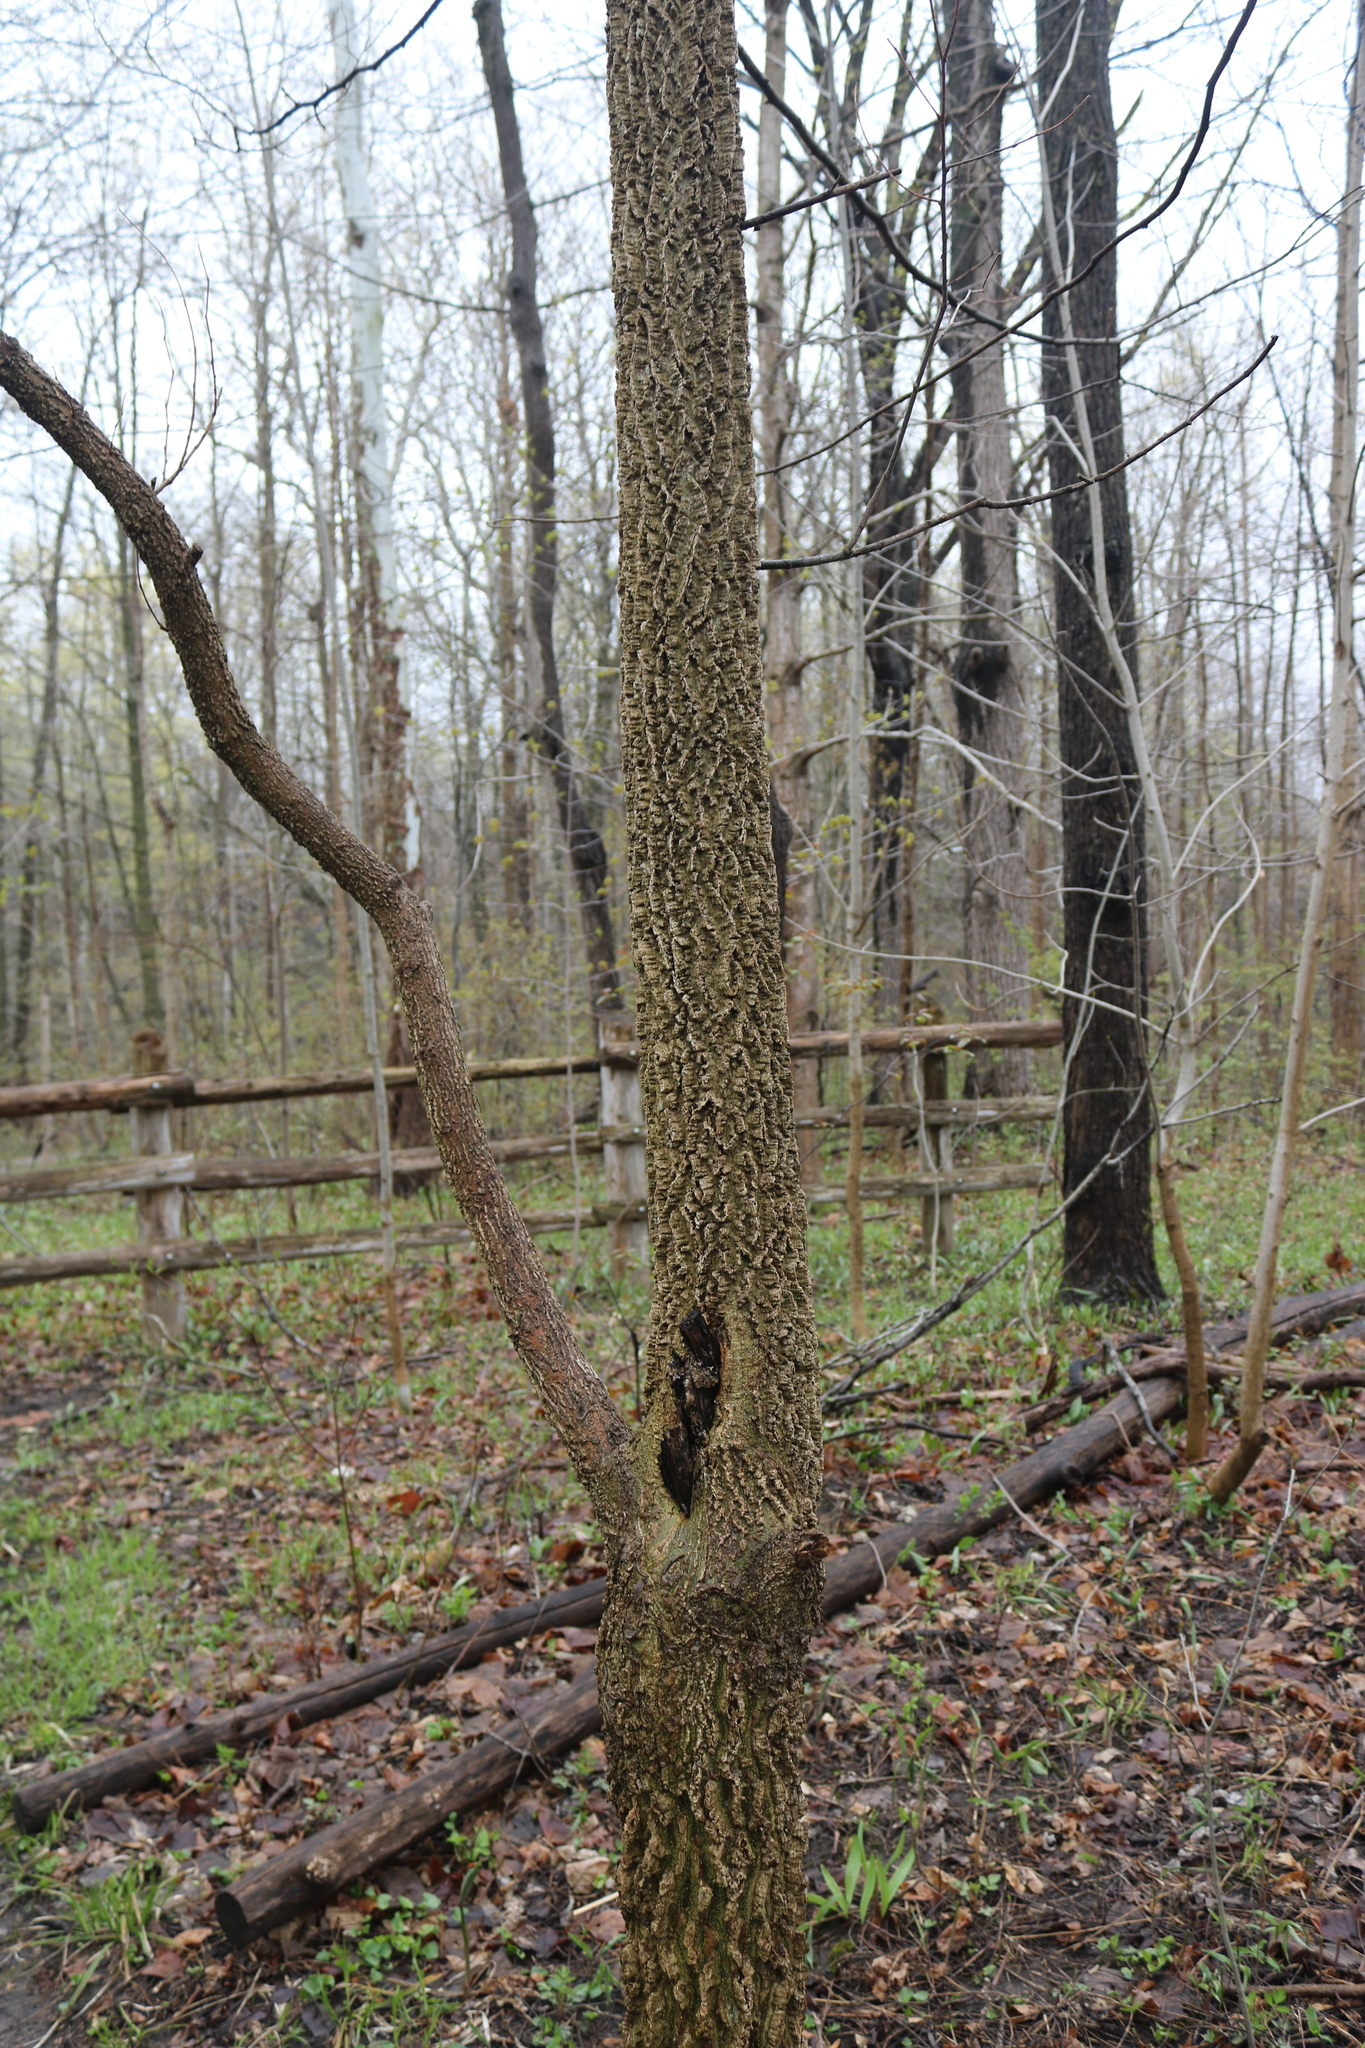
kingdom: Plantae
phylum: Tracheophyta
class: Magnoliopsida
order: Rosales
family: Cannabaceae
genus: Celtis
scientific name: Celtis occidentalis
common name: Common hackberry
